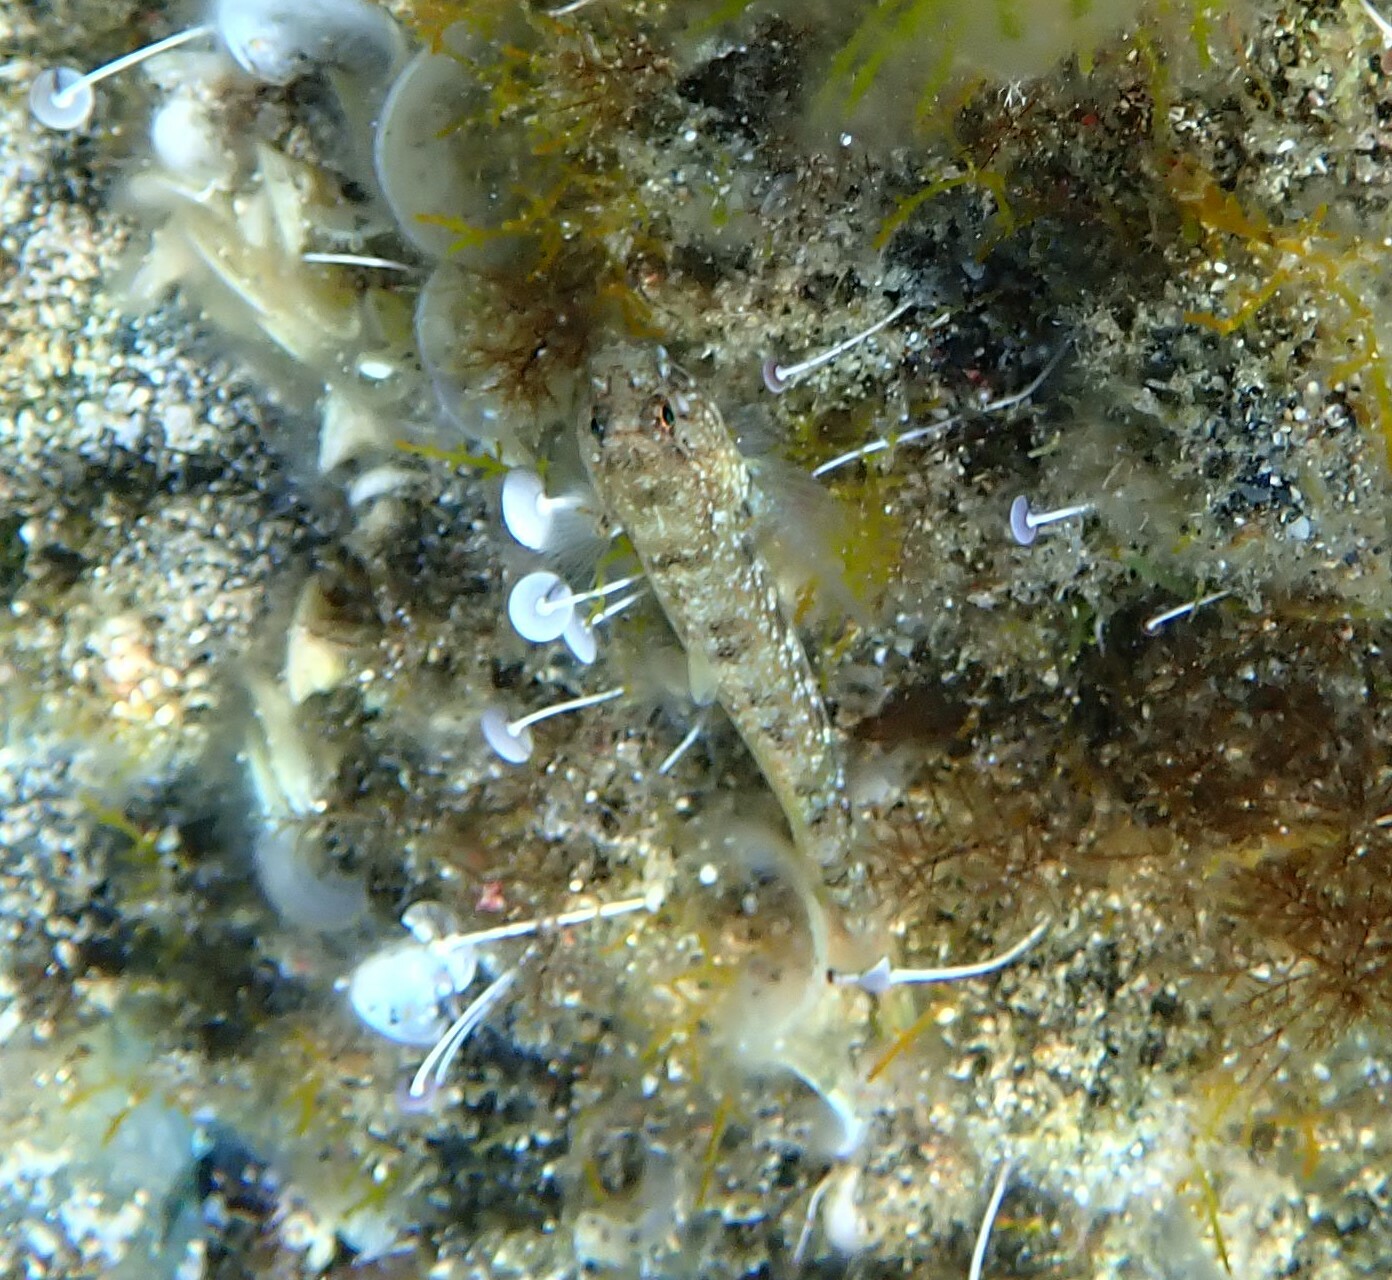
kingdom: Animalia
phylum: Chordata
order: Perciformes
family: Gobiidae
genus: Gobius
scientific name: Gobius incognitus
